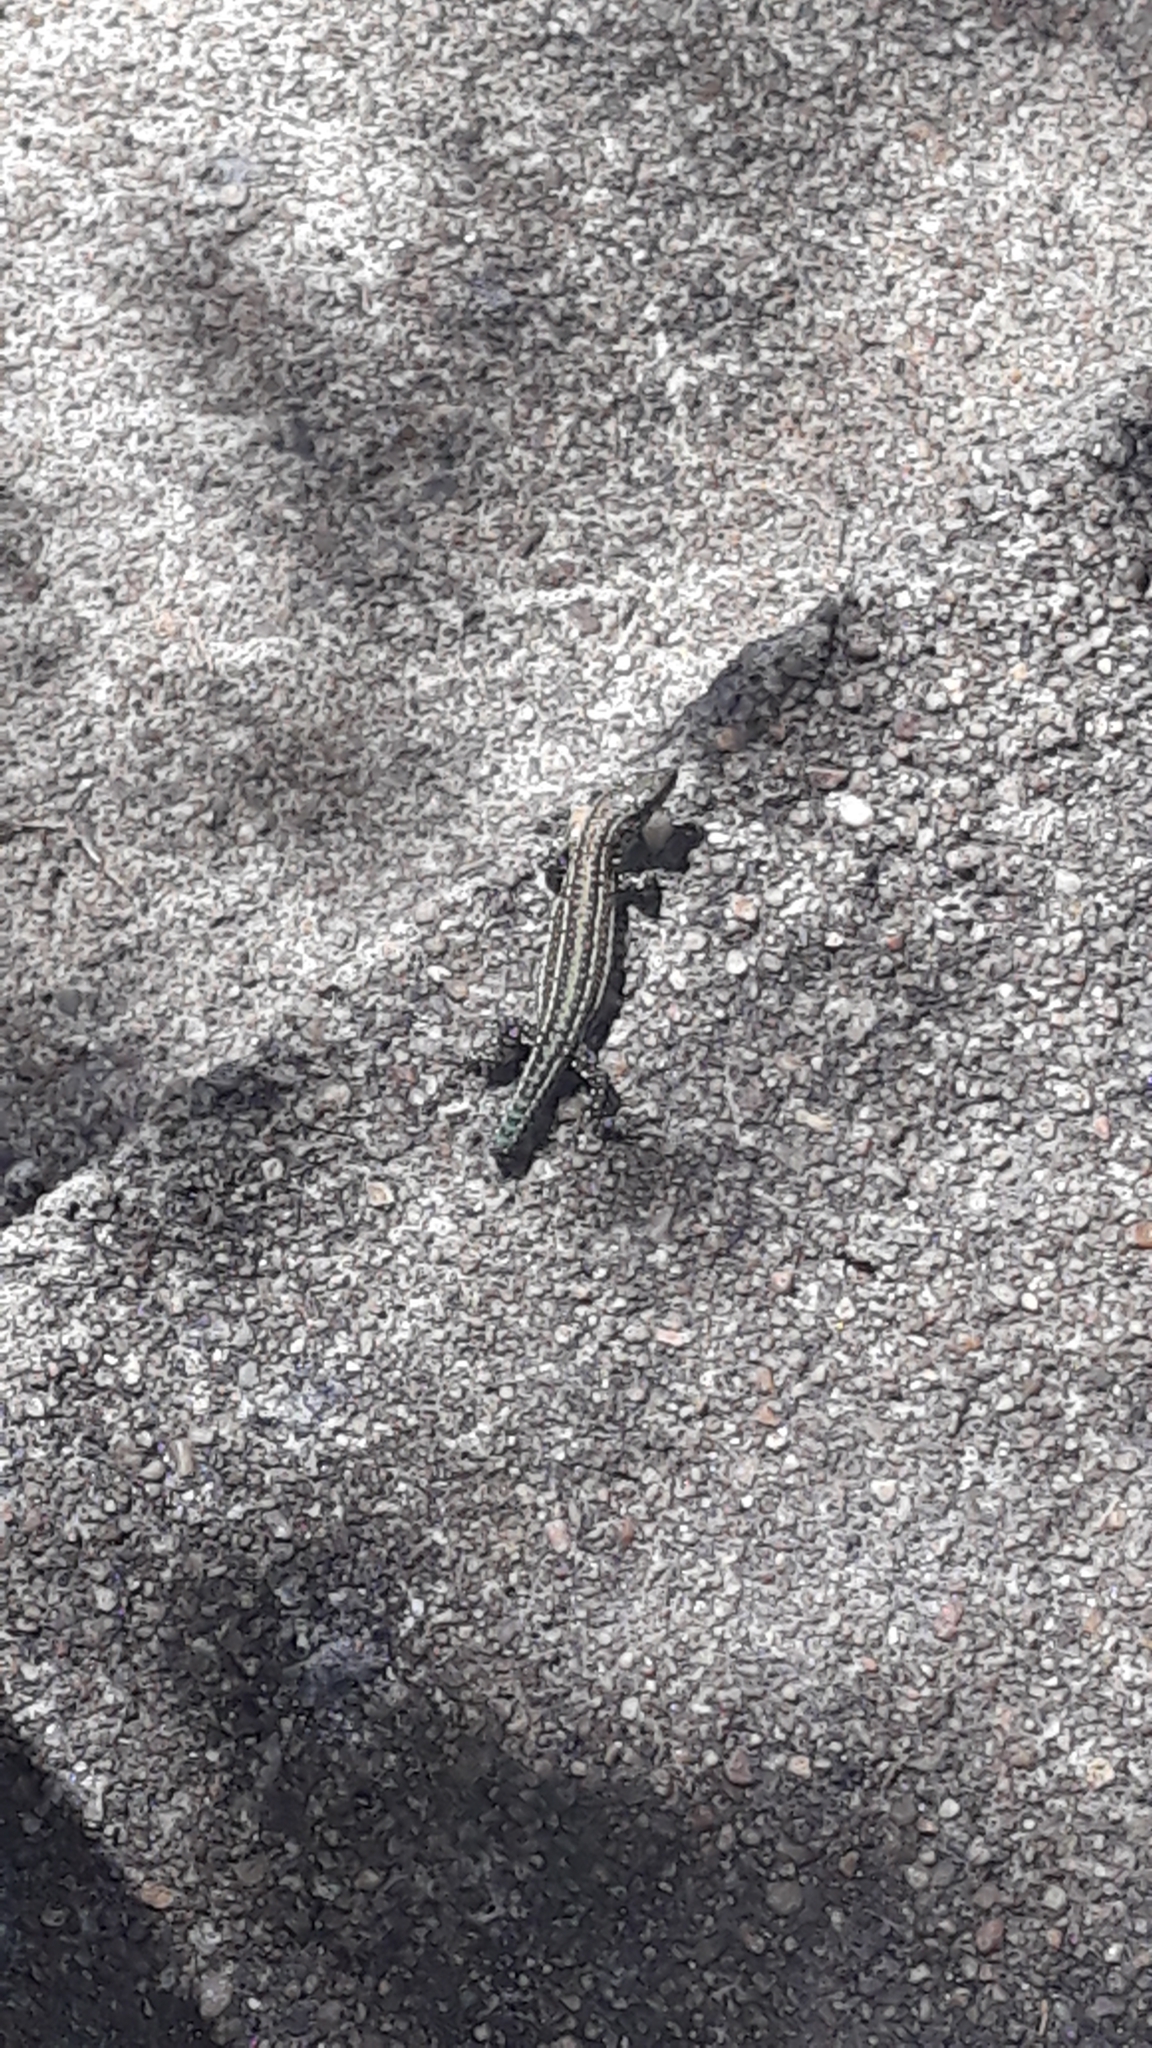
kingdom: Animalia
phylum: Chordata
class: Squamata
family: Lacertidae
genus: Podarcis
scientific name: Podarcis
